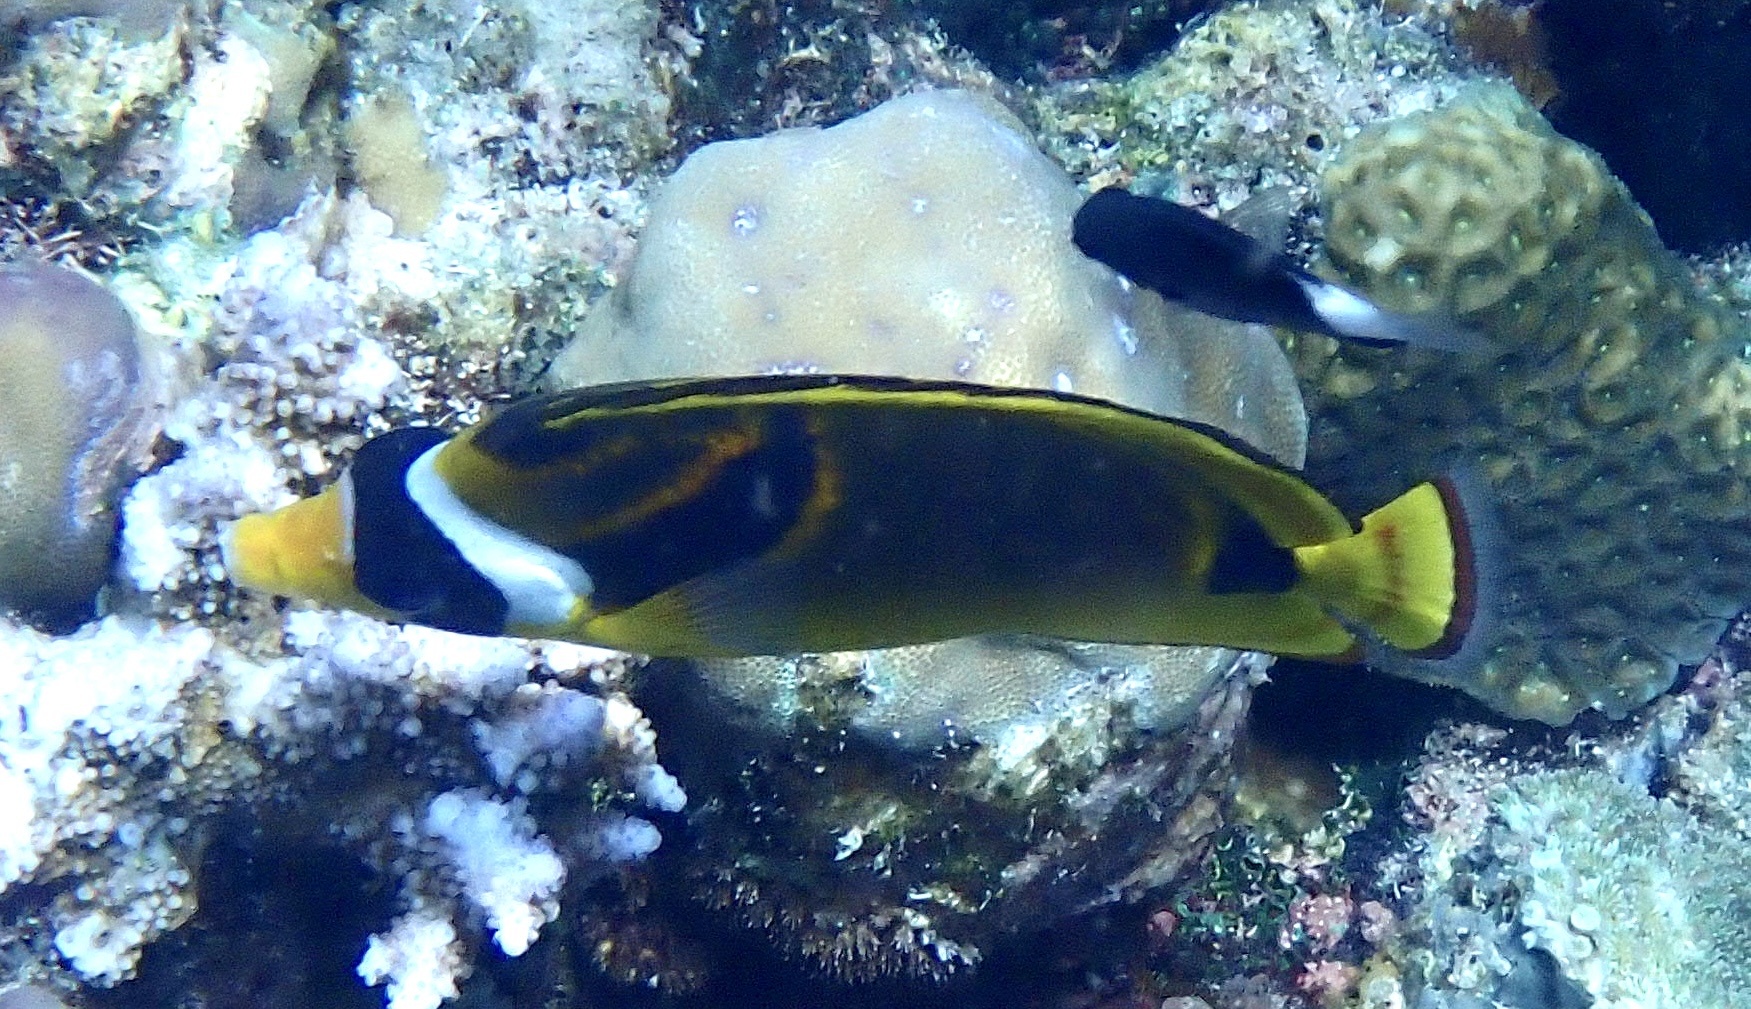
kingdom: Animalia
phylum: Chordata
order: Perciformes
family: Chaetodontidae
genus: Chaetodon
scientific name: Chaetodon lunula
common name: Raccoon butterflyfish
